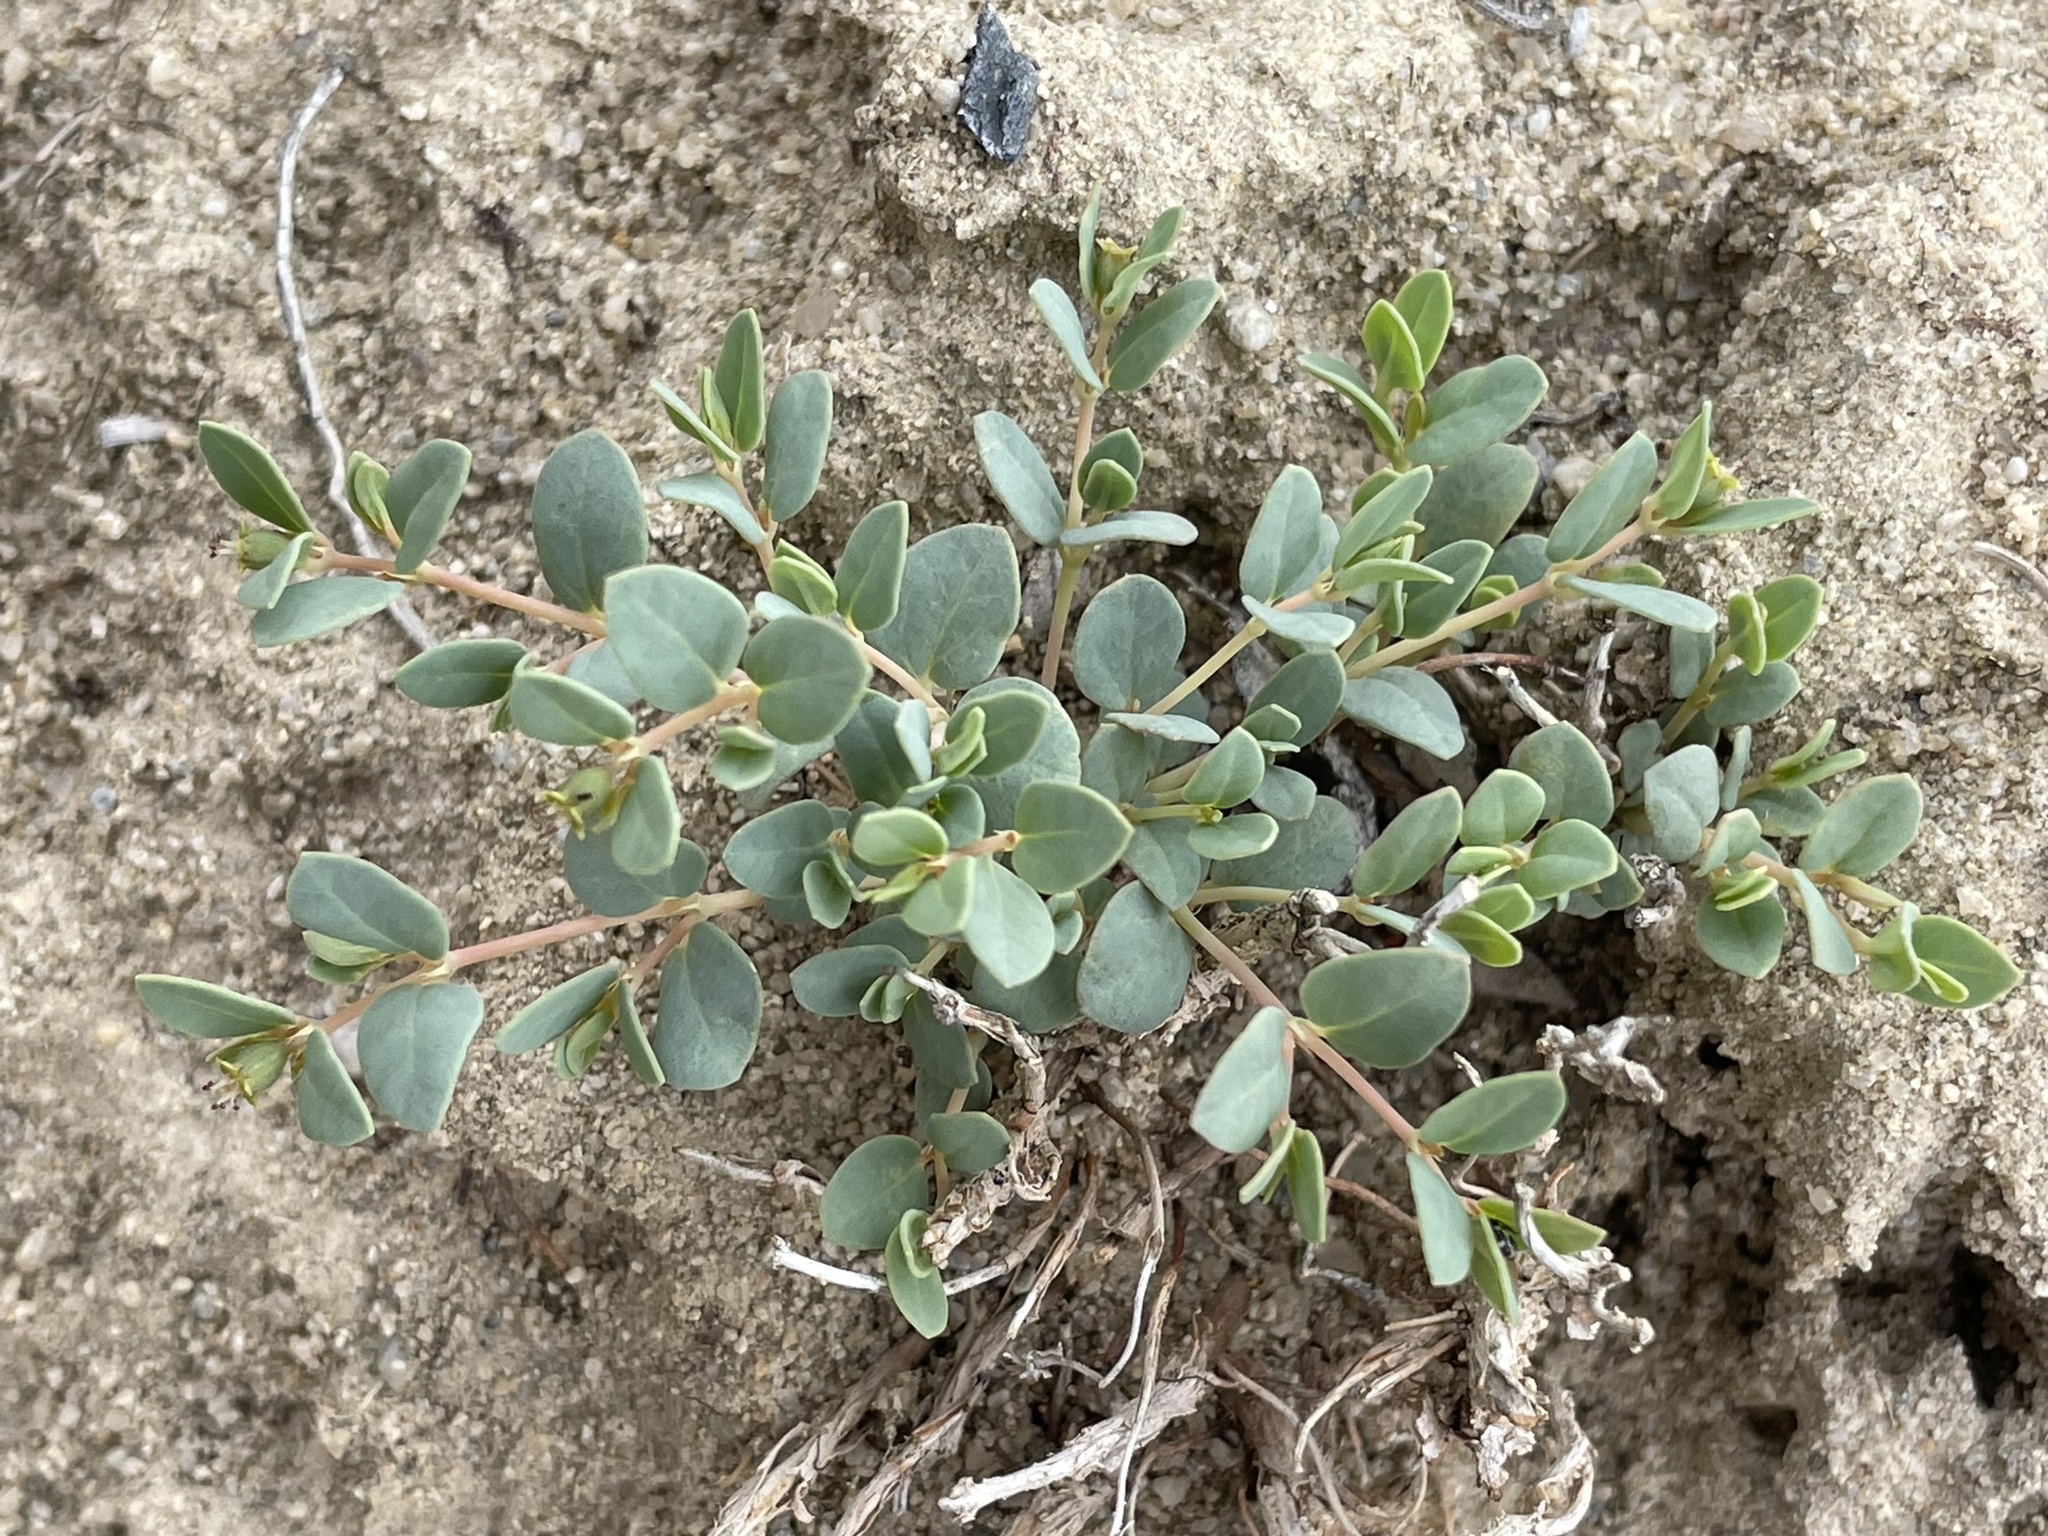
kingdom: Plantae
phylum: Tracheophyta
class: Magnoliopsida
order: Malpighiales
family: Euphorbiaceae
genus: Euphorbia
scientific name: Euphorbia fendleri
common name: Fendler's euphorbia
